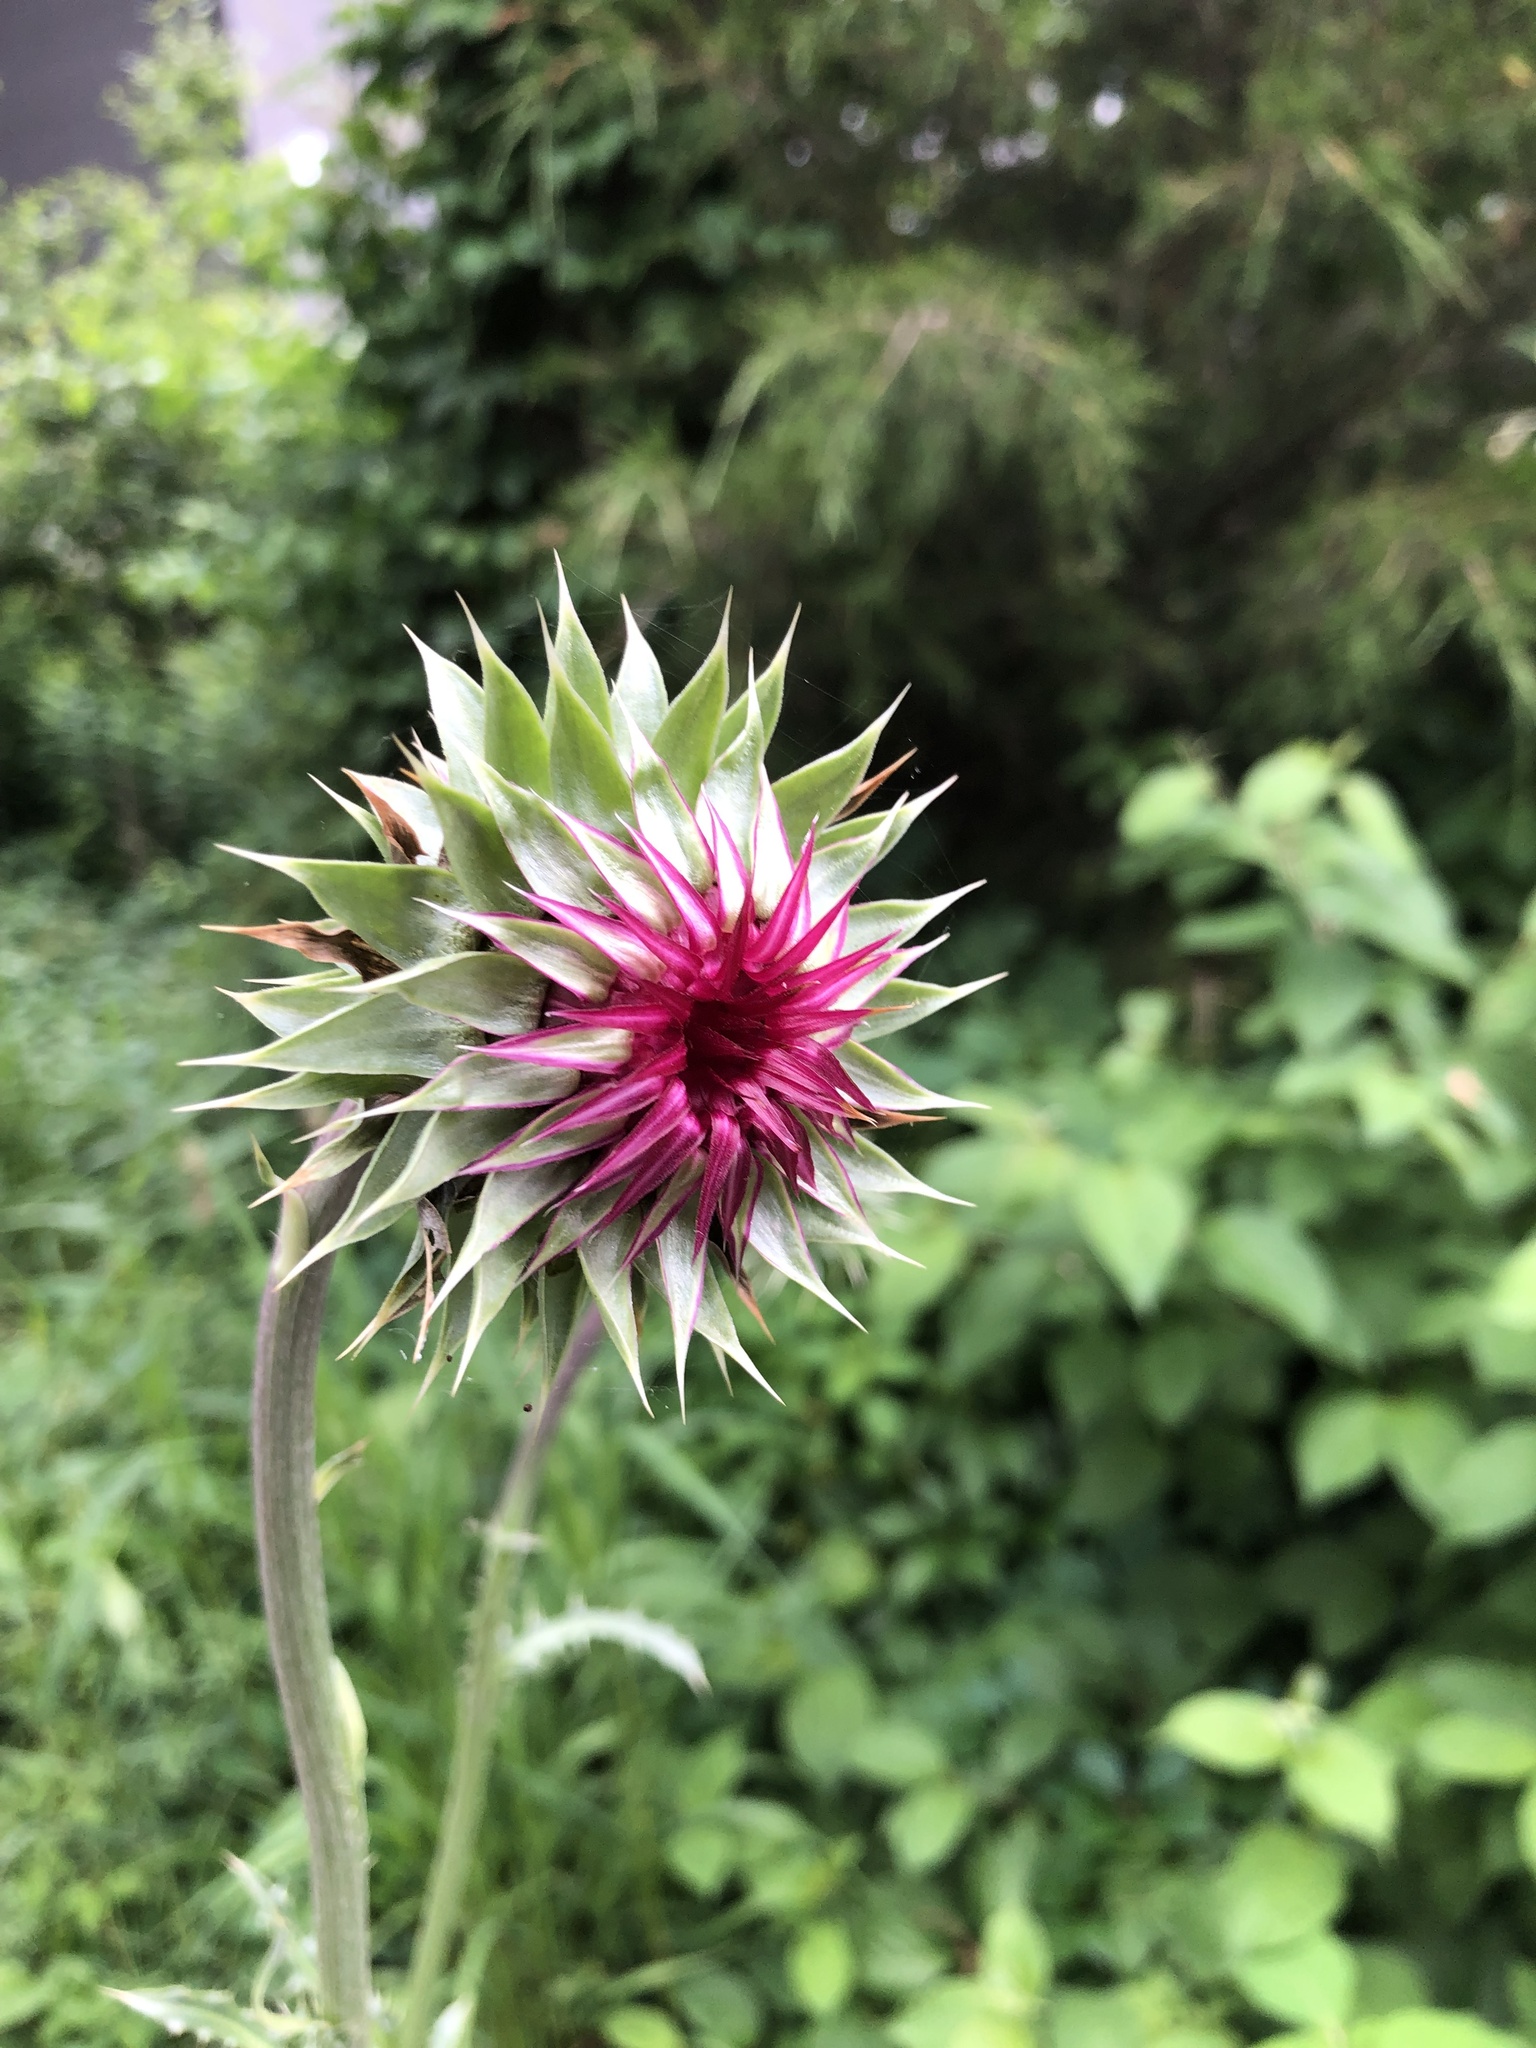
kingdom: Plantae
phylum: Tracheophyta
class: Magnoliopsida
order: Asterales
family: Asteraceae
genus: Carduus
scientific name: Carduus nutans
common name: Musk thistle
